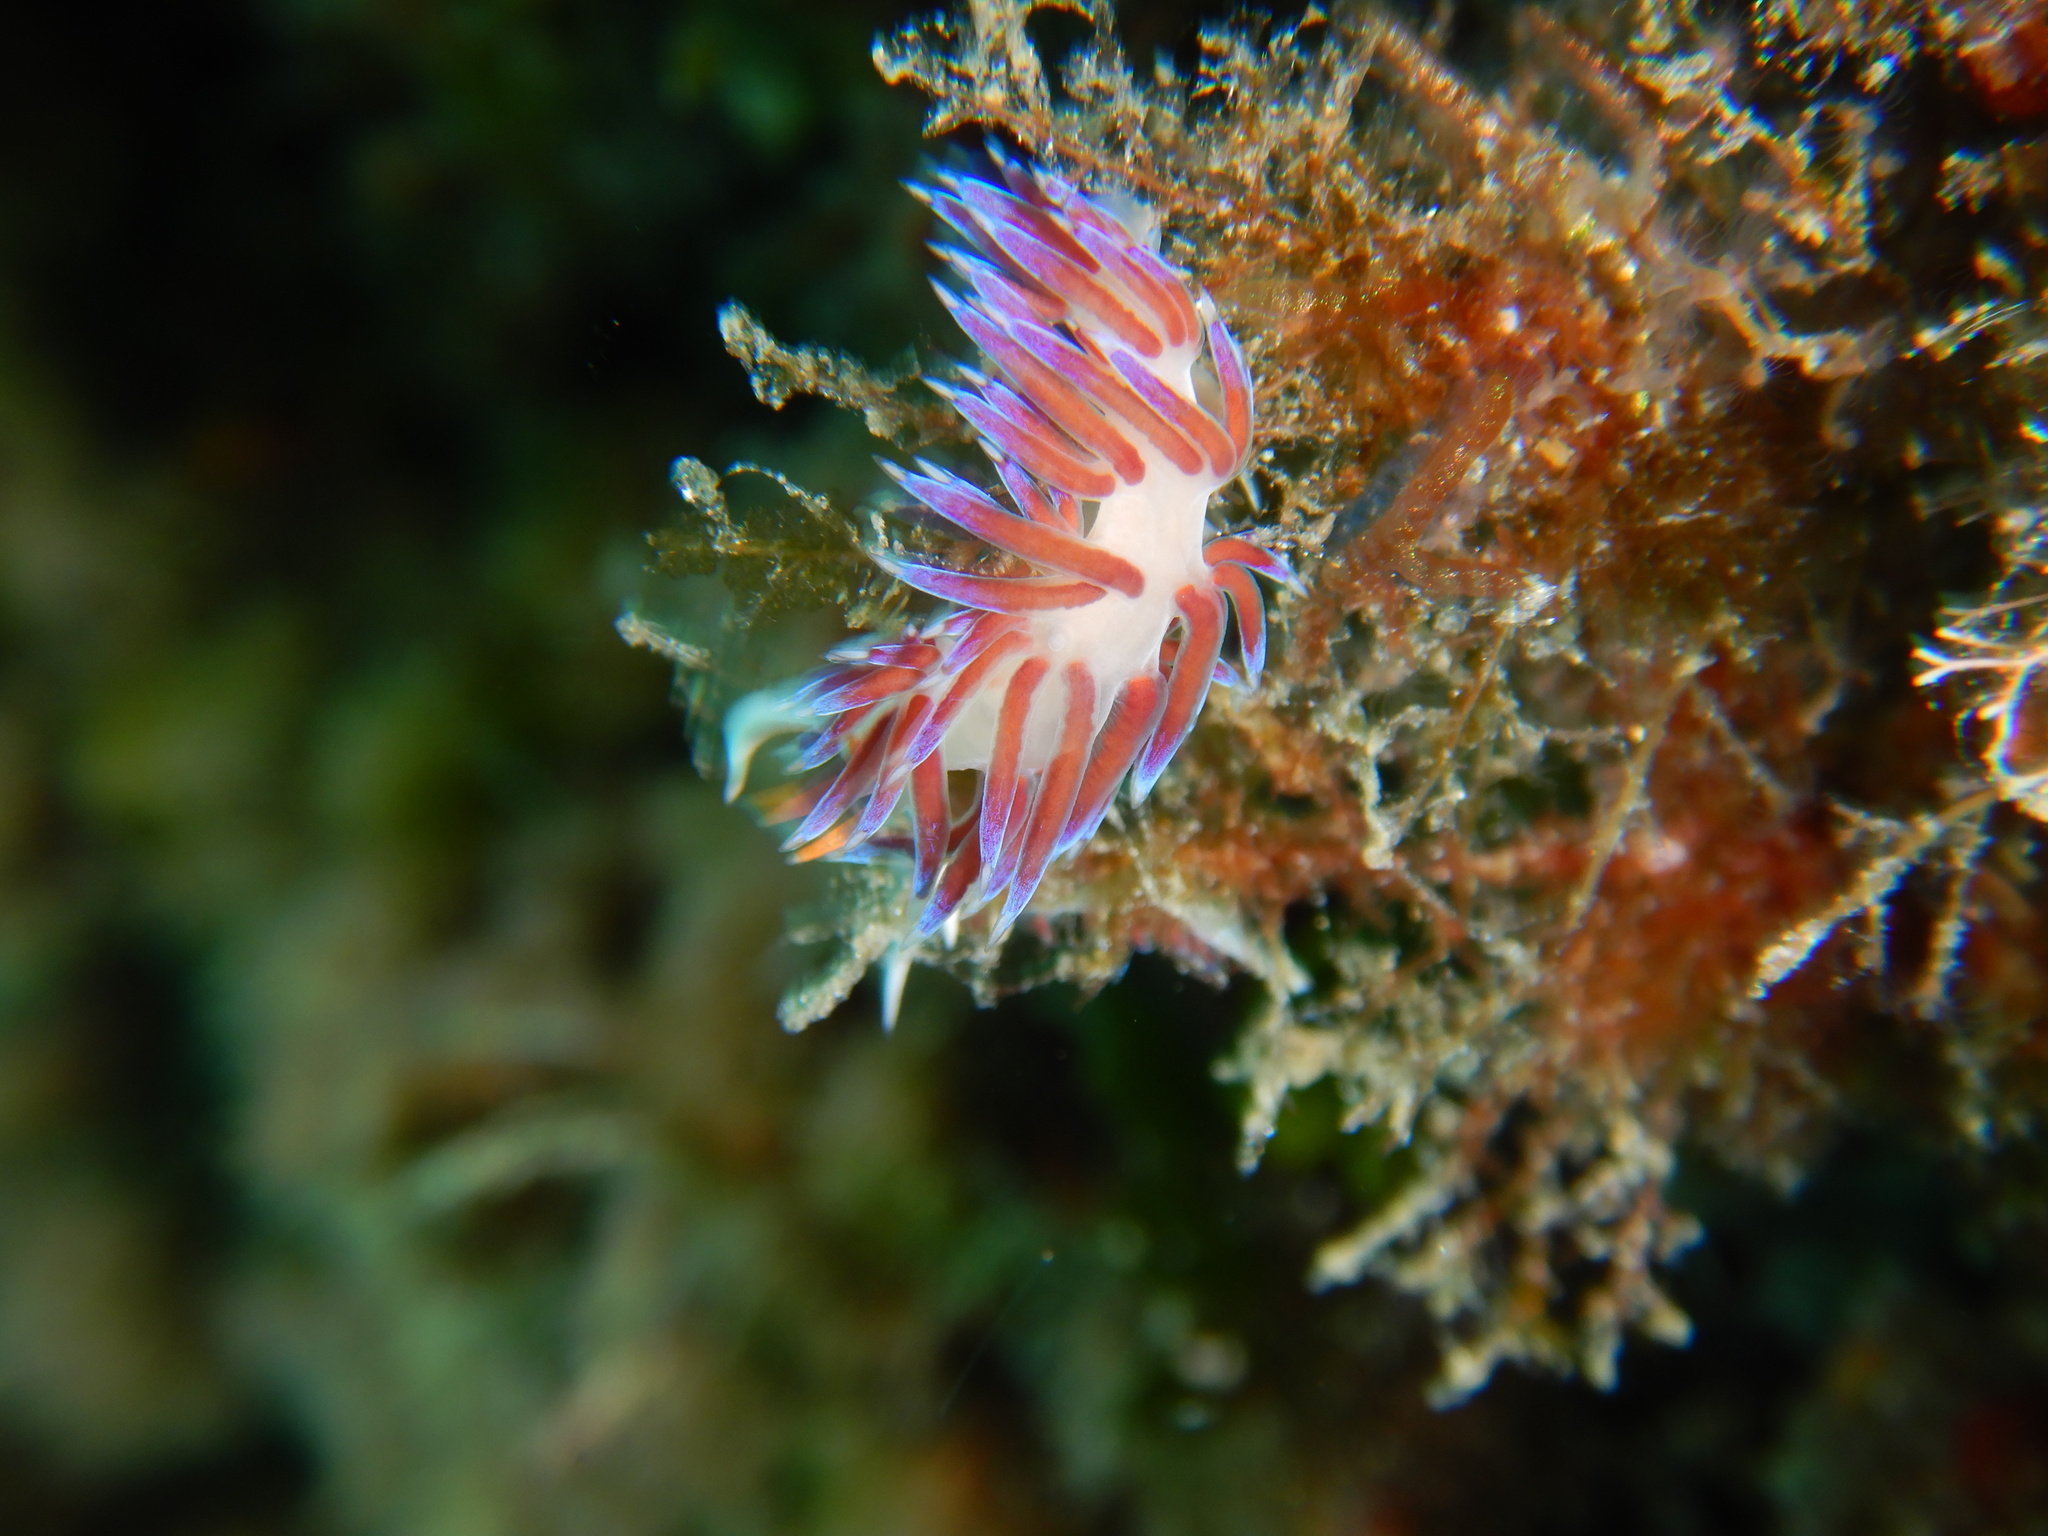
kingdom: Animalia
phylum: Mollusca
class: Gastropoda
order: Nudibranchia
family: Facelinidae
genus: Cratena
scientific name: Cratena peregrina
